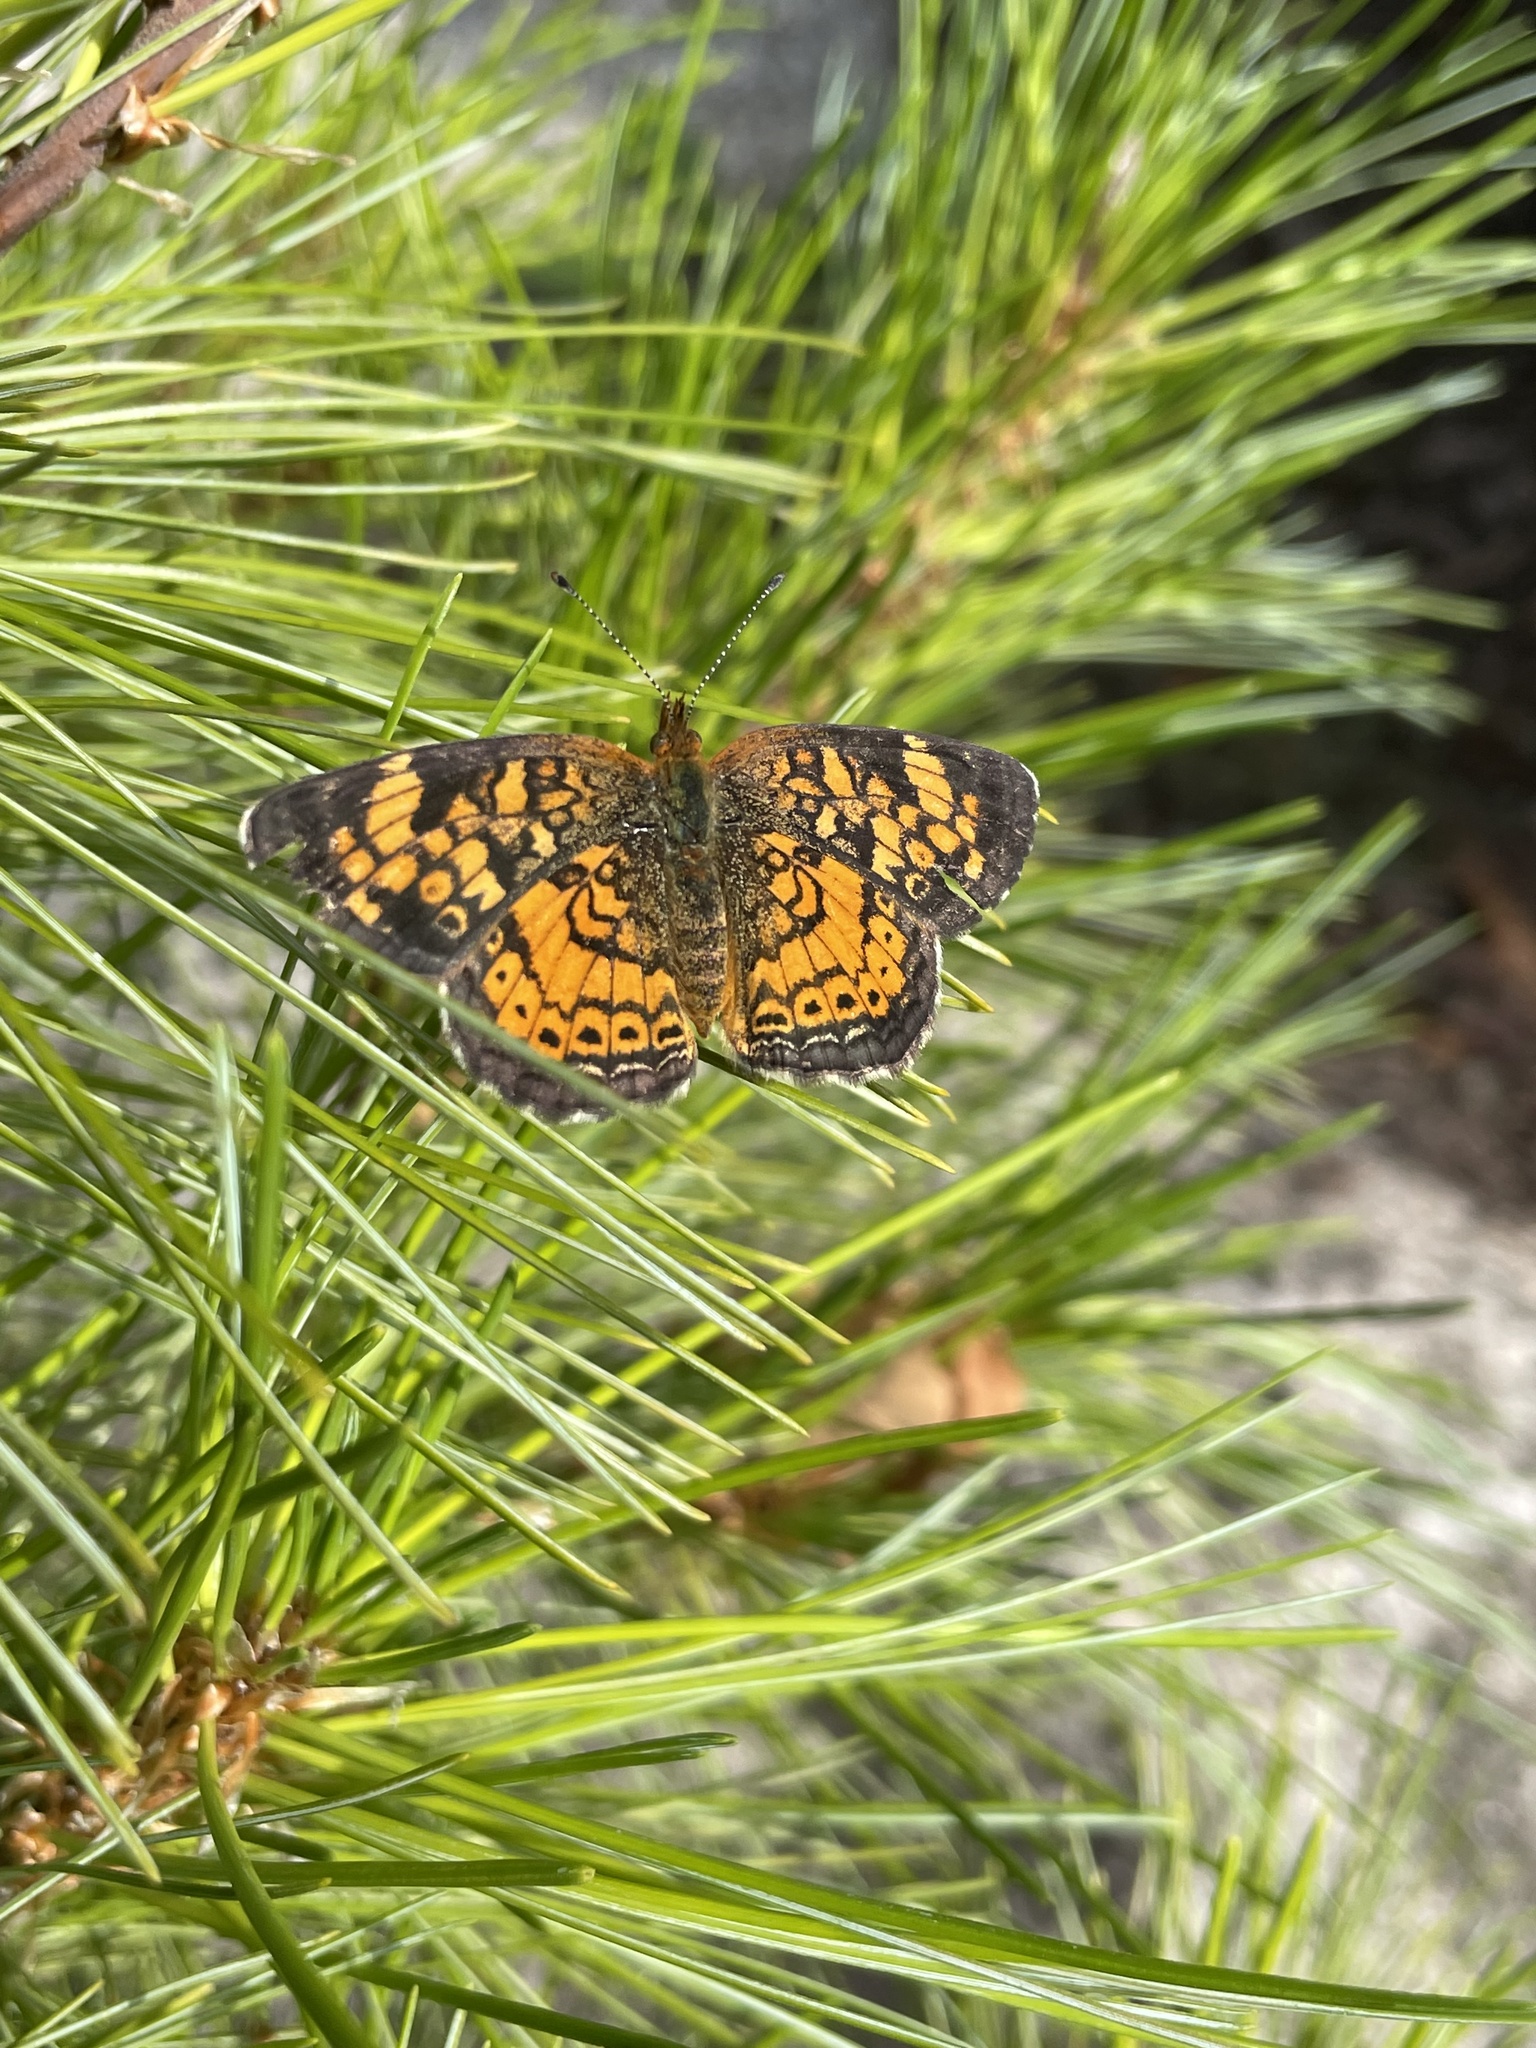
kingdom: Animalia
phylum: Arthropoda
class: Insecta
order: Lepidoptera
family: Nymphalidae
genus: Phyciodes
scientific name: Phyciodes tharos
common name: Pearl crescent
